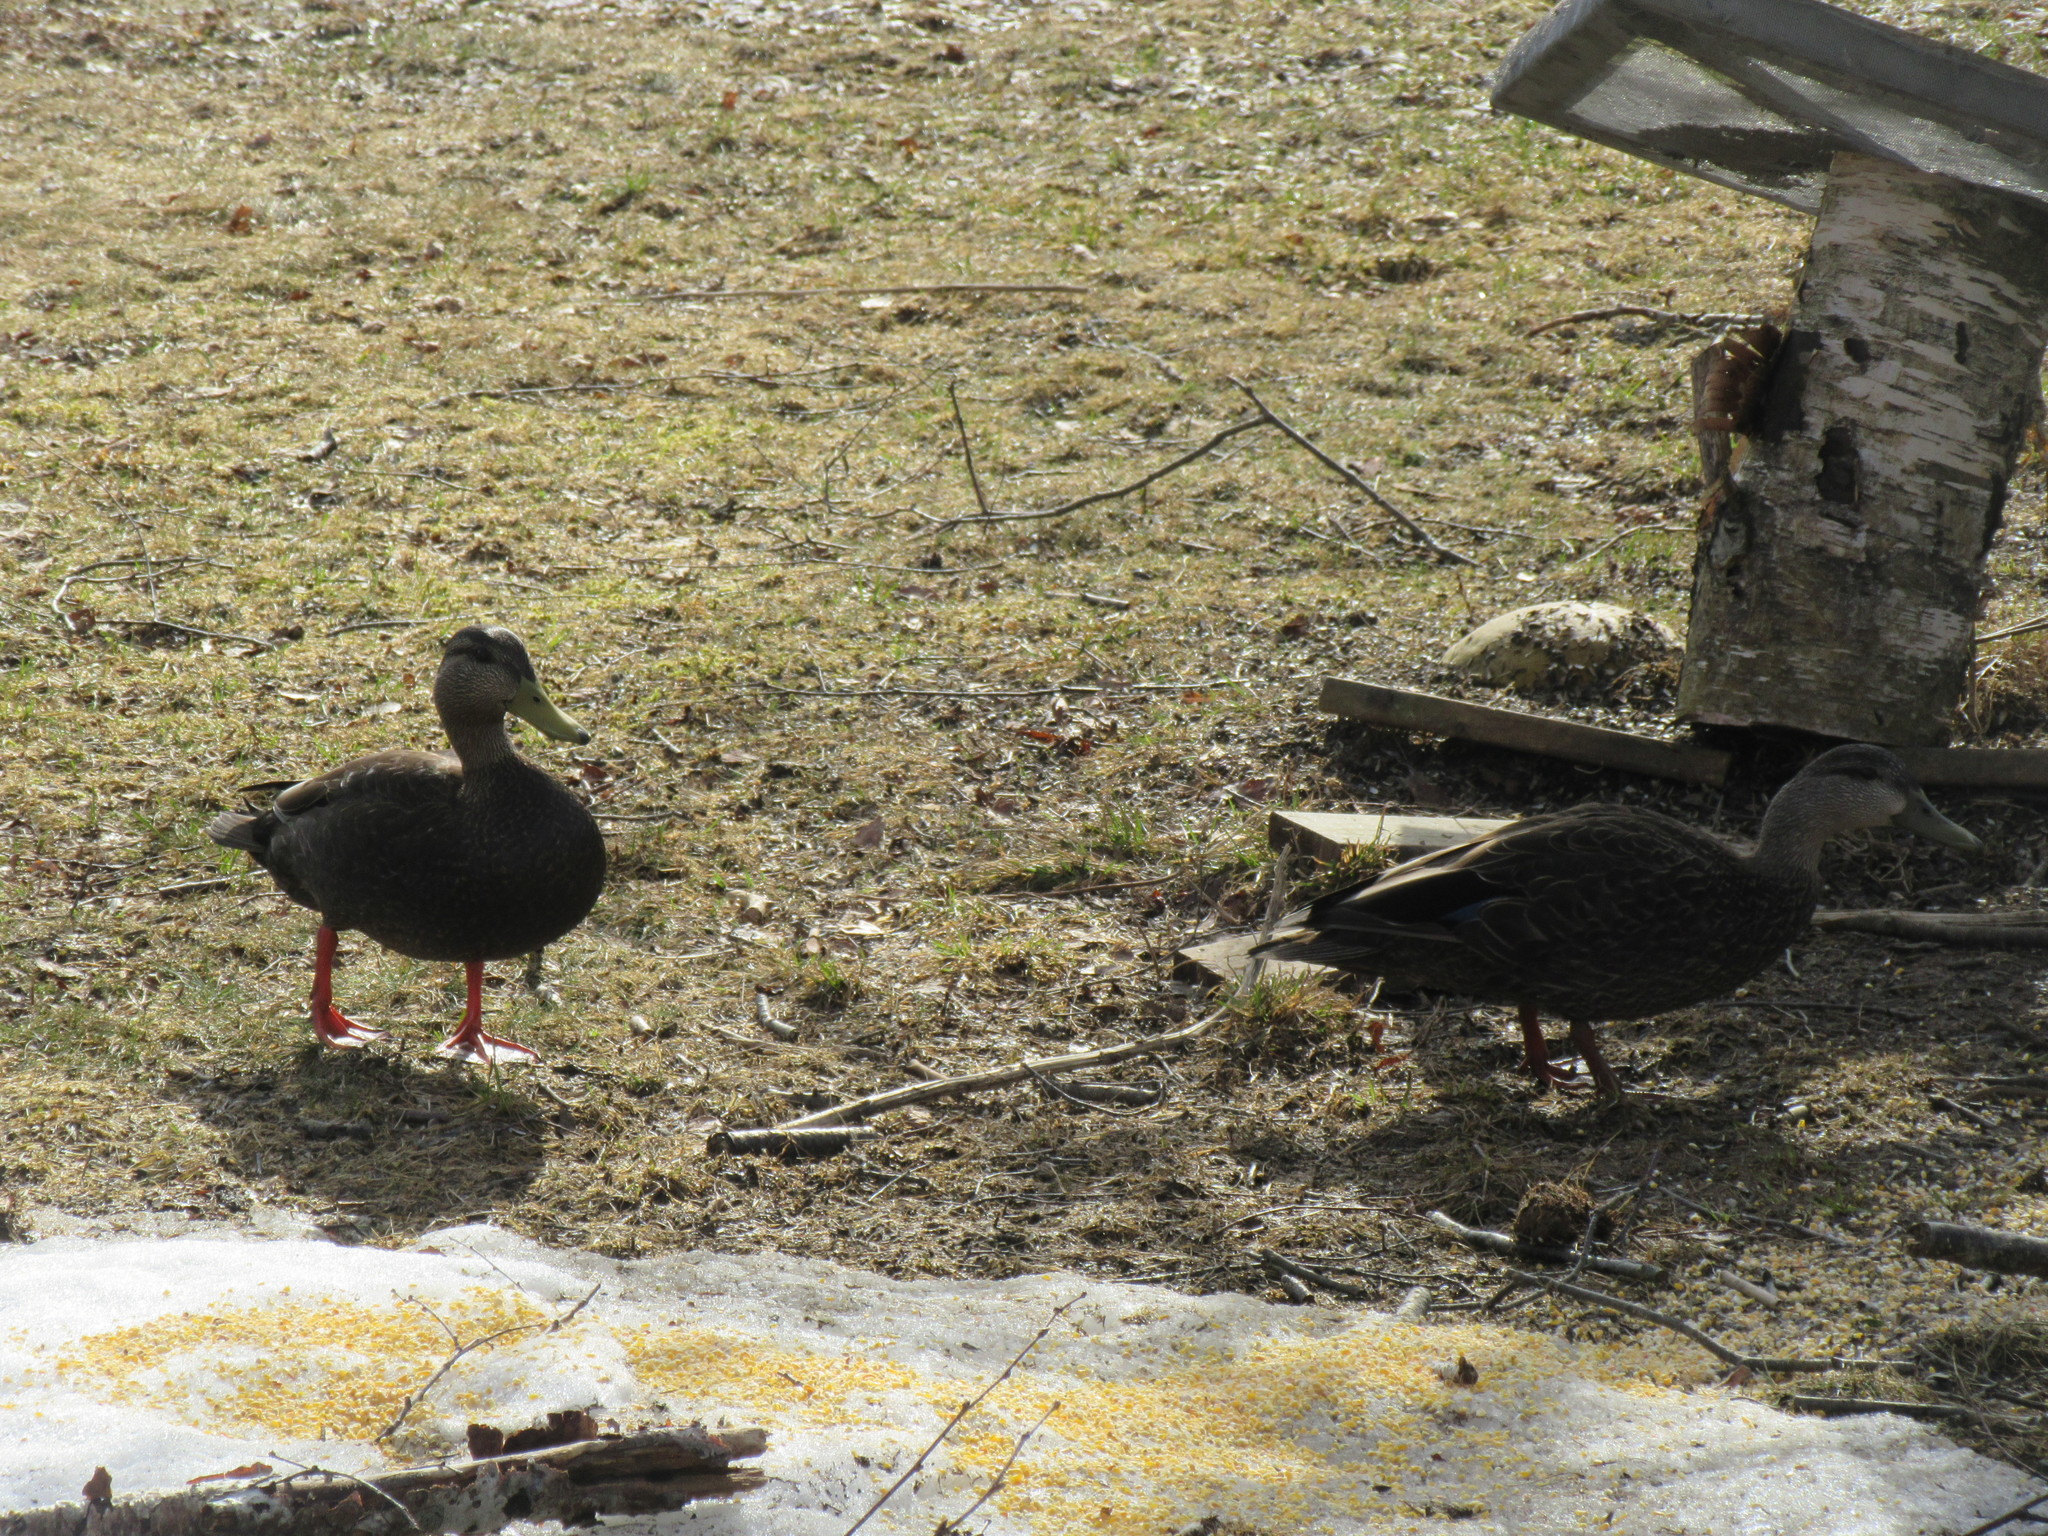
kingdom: Animalia
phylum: Chordata
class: Aves
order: Anseriformes
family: Anatidae
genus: Anas
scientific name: Anas rubripes
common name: American black duck
